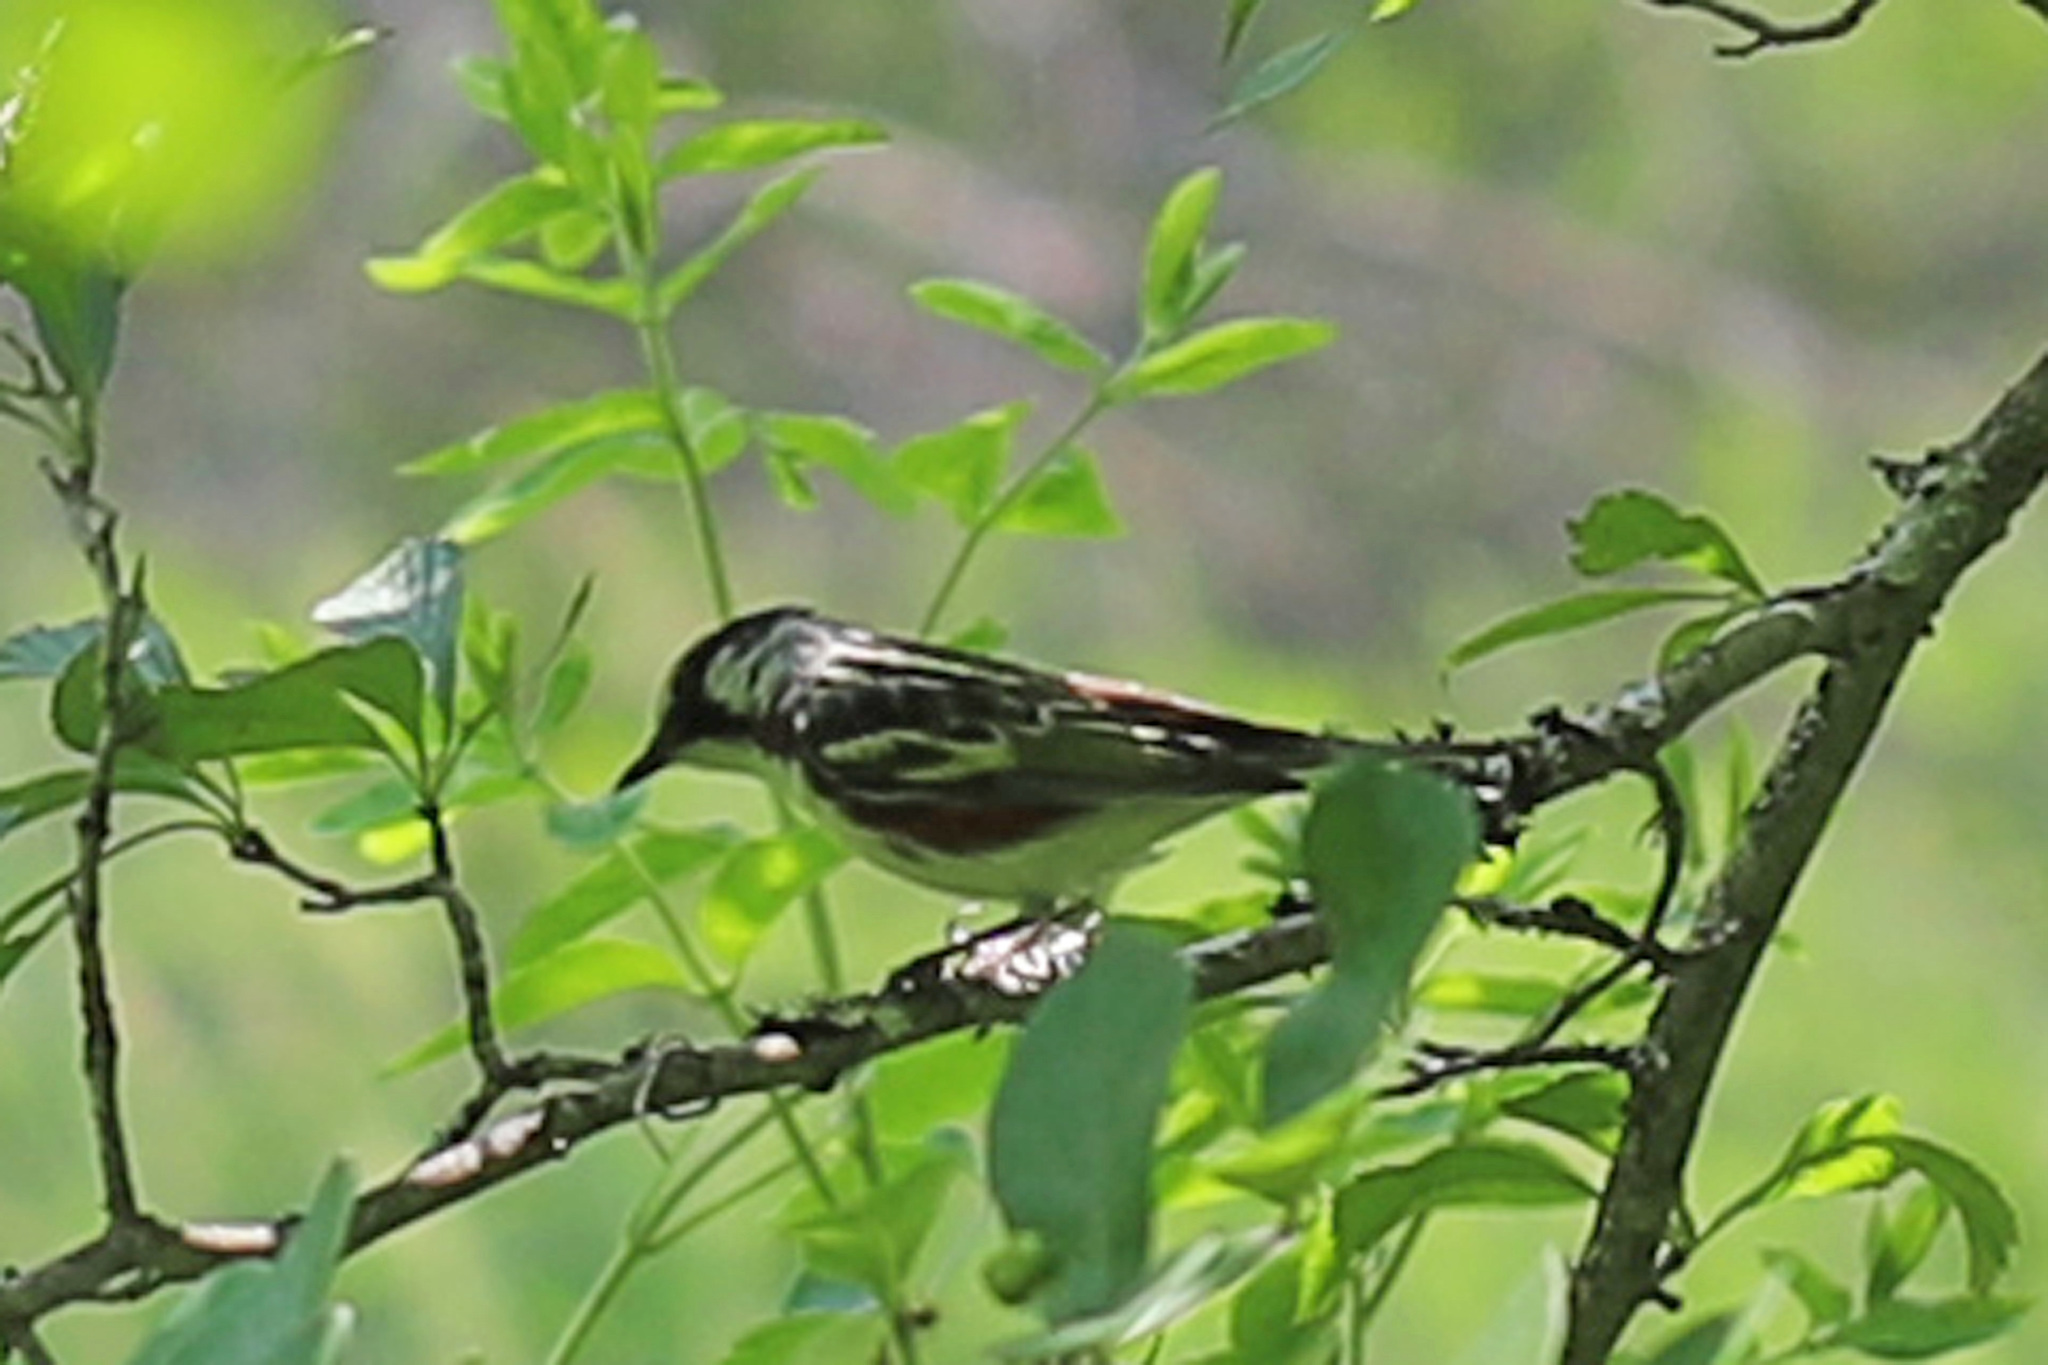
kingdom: Animalia
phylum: Chordata
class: Aves
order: Passeriformes
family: Parulidae
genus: Setophaga
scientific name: Setophaga pensylvanica
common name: Chestnut-sided warbler
